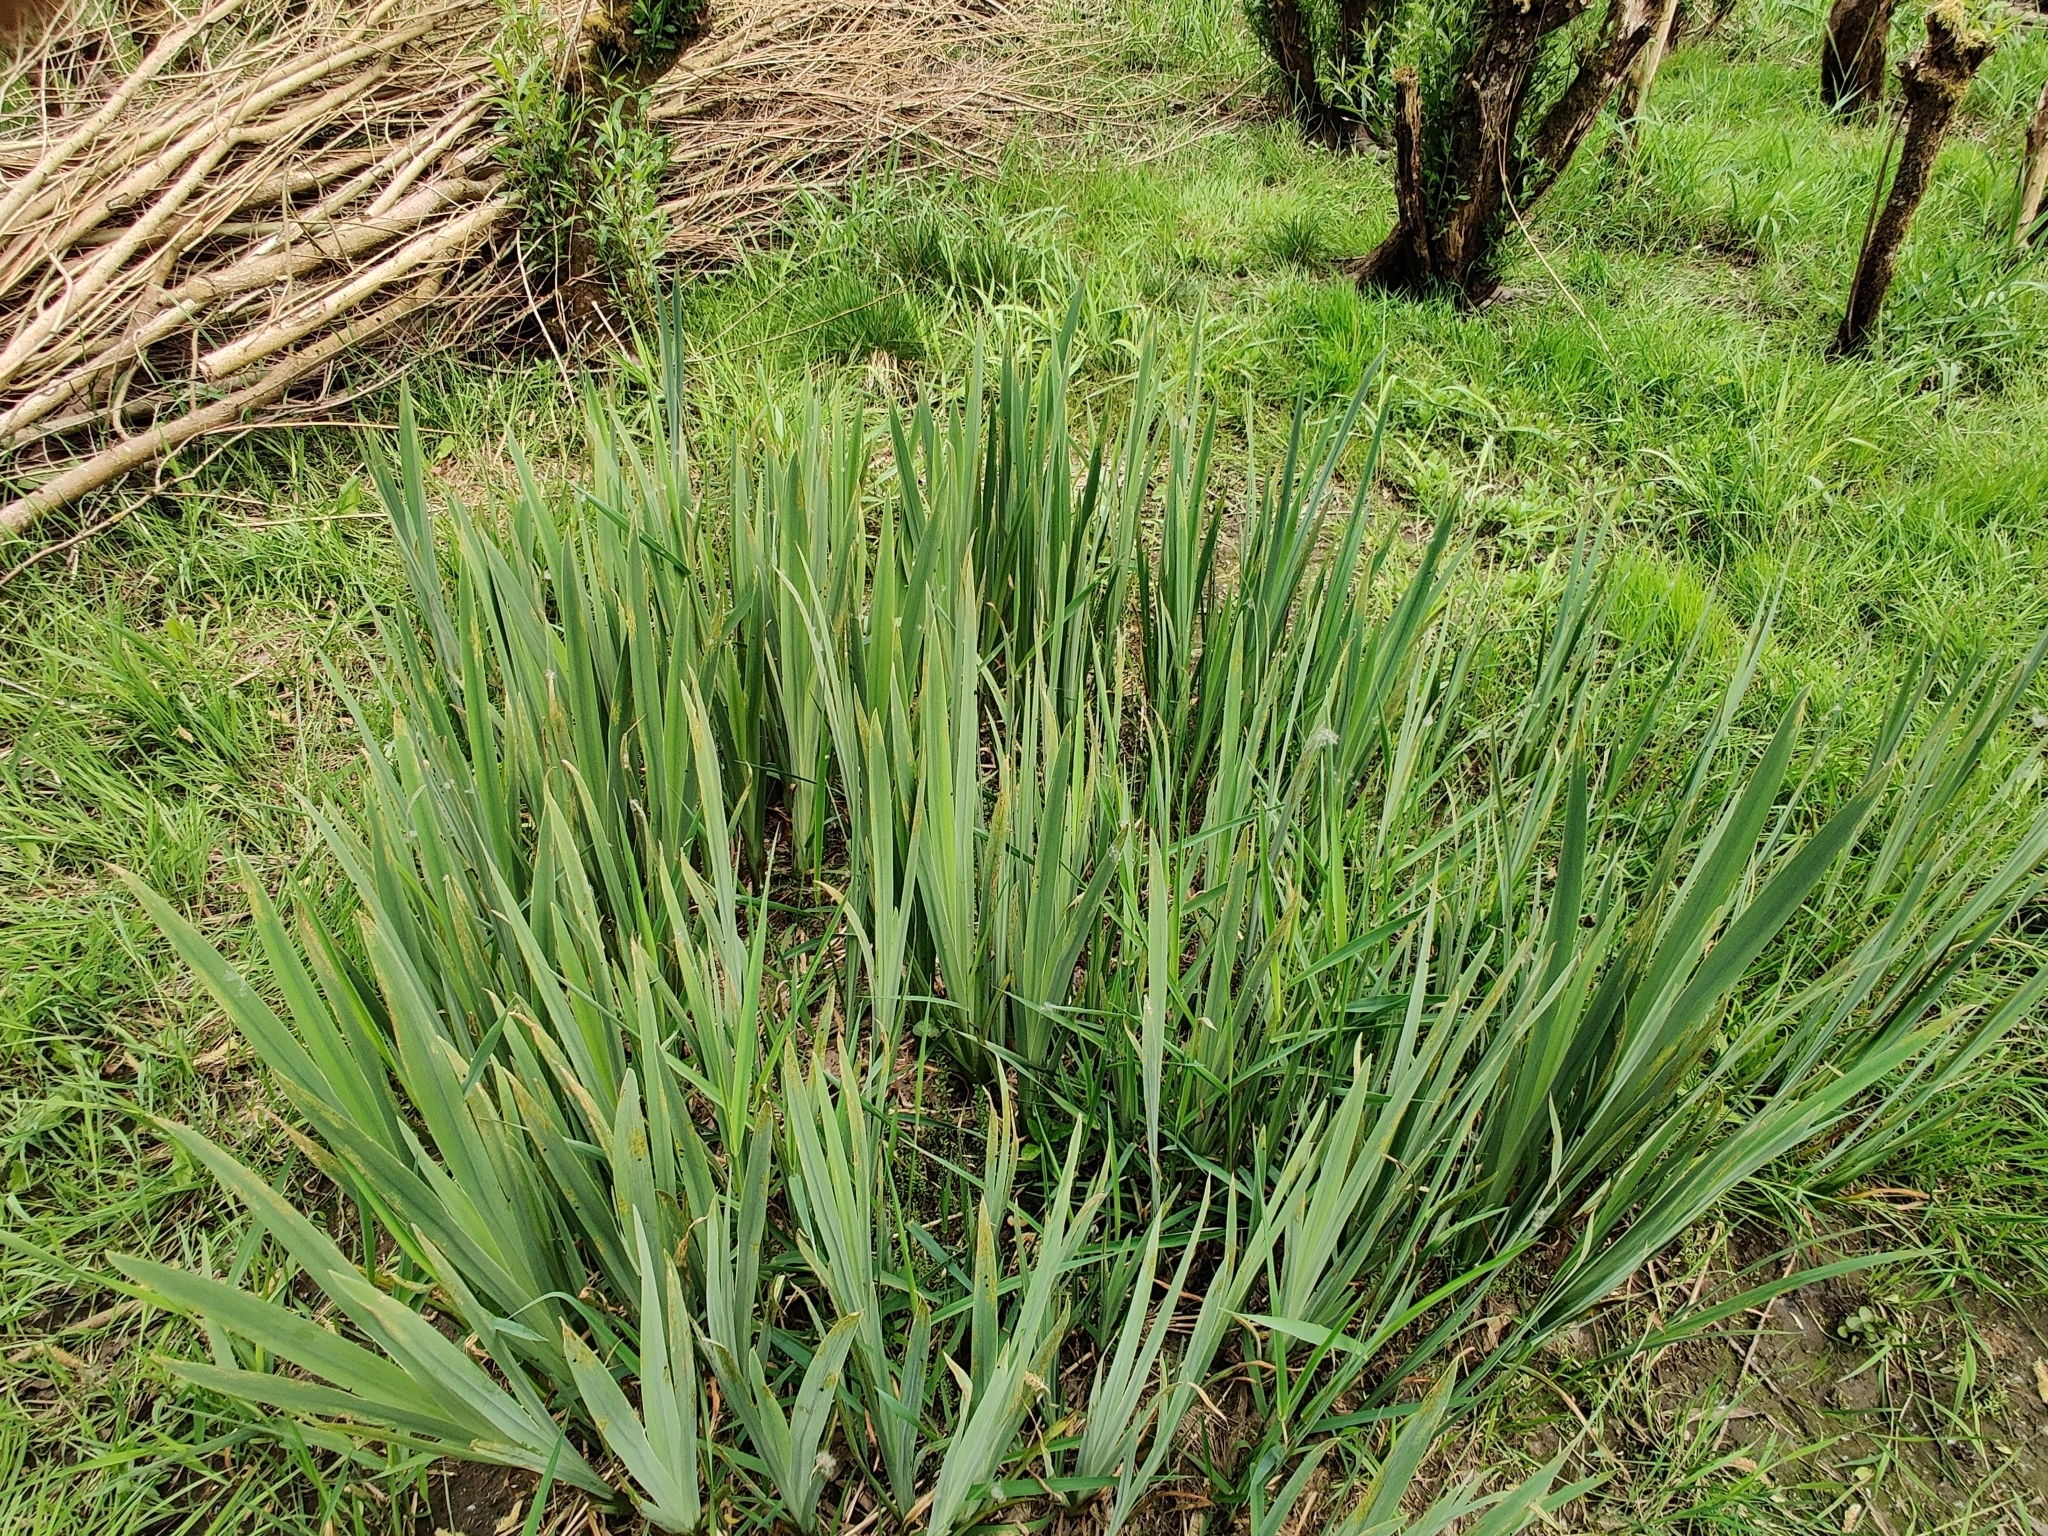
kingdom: Plantae
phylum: Tracheophyta
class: Liliopsida
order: Asparagales
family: Iridaceae
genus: Iris
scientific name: Iris pseudacorus
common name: Yellow flag
